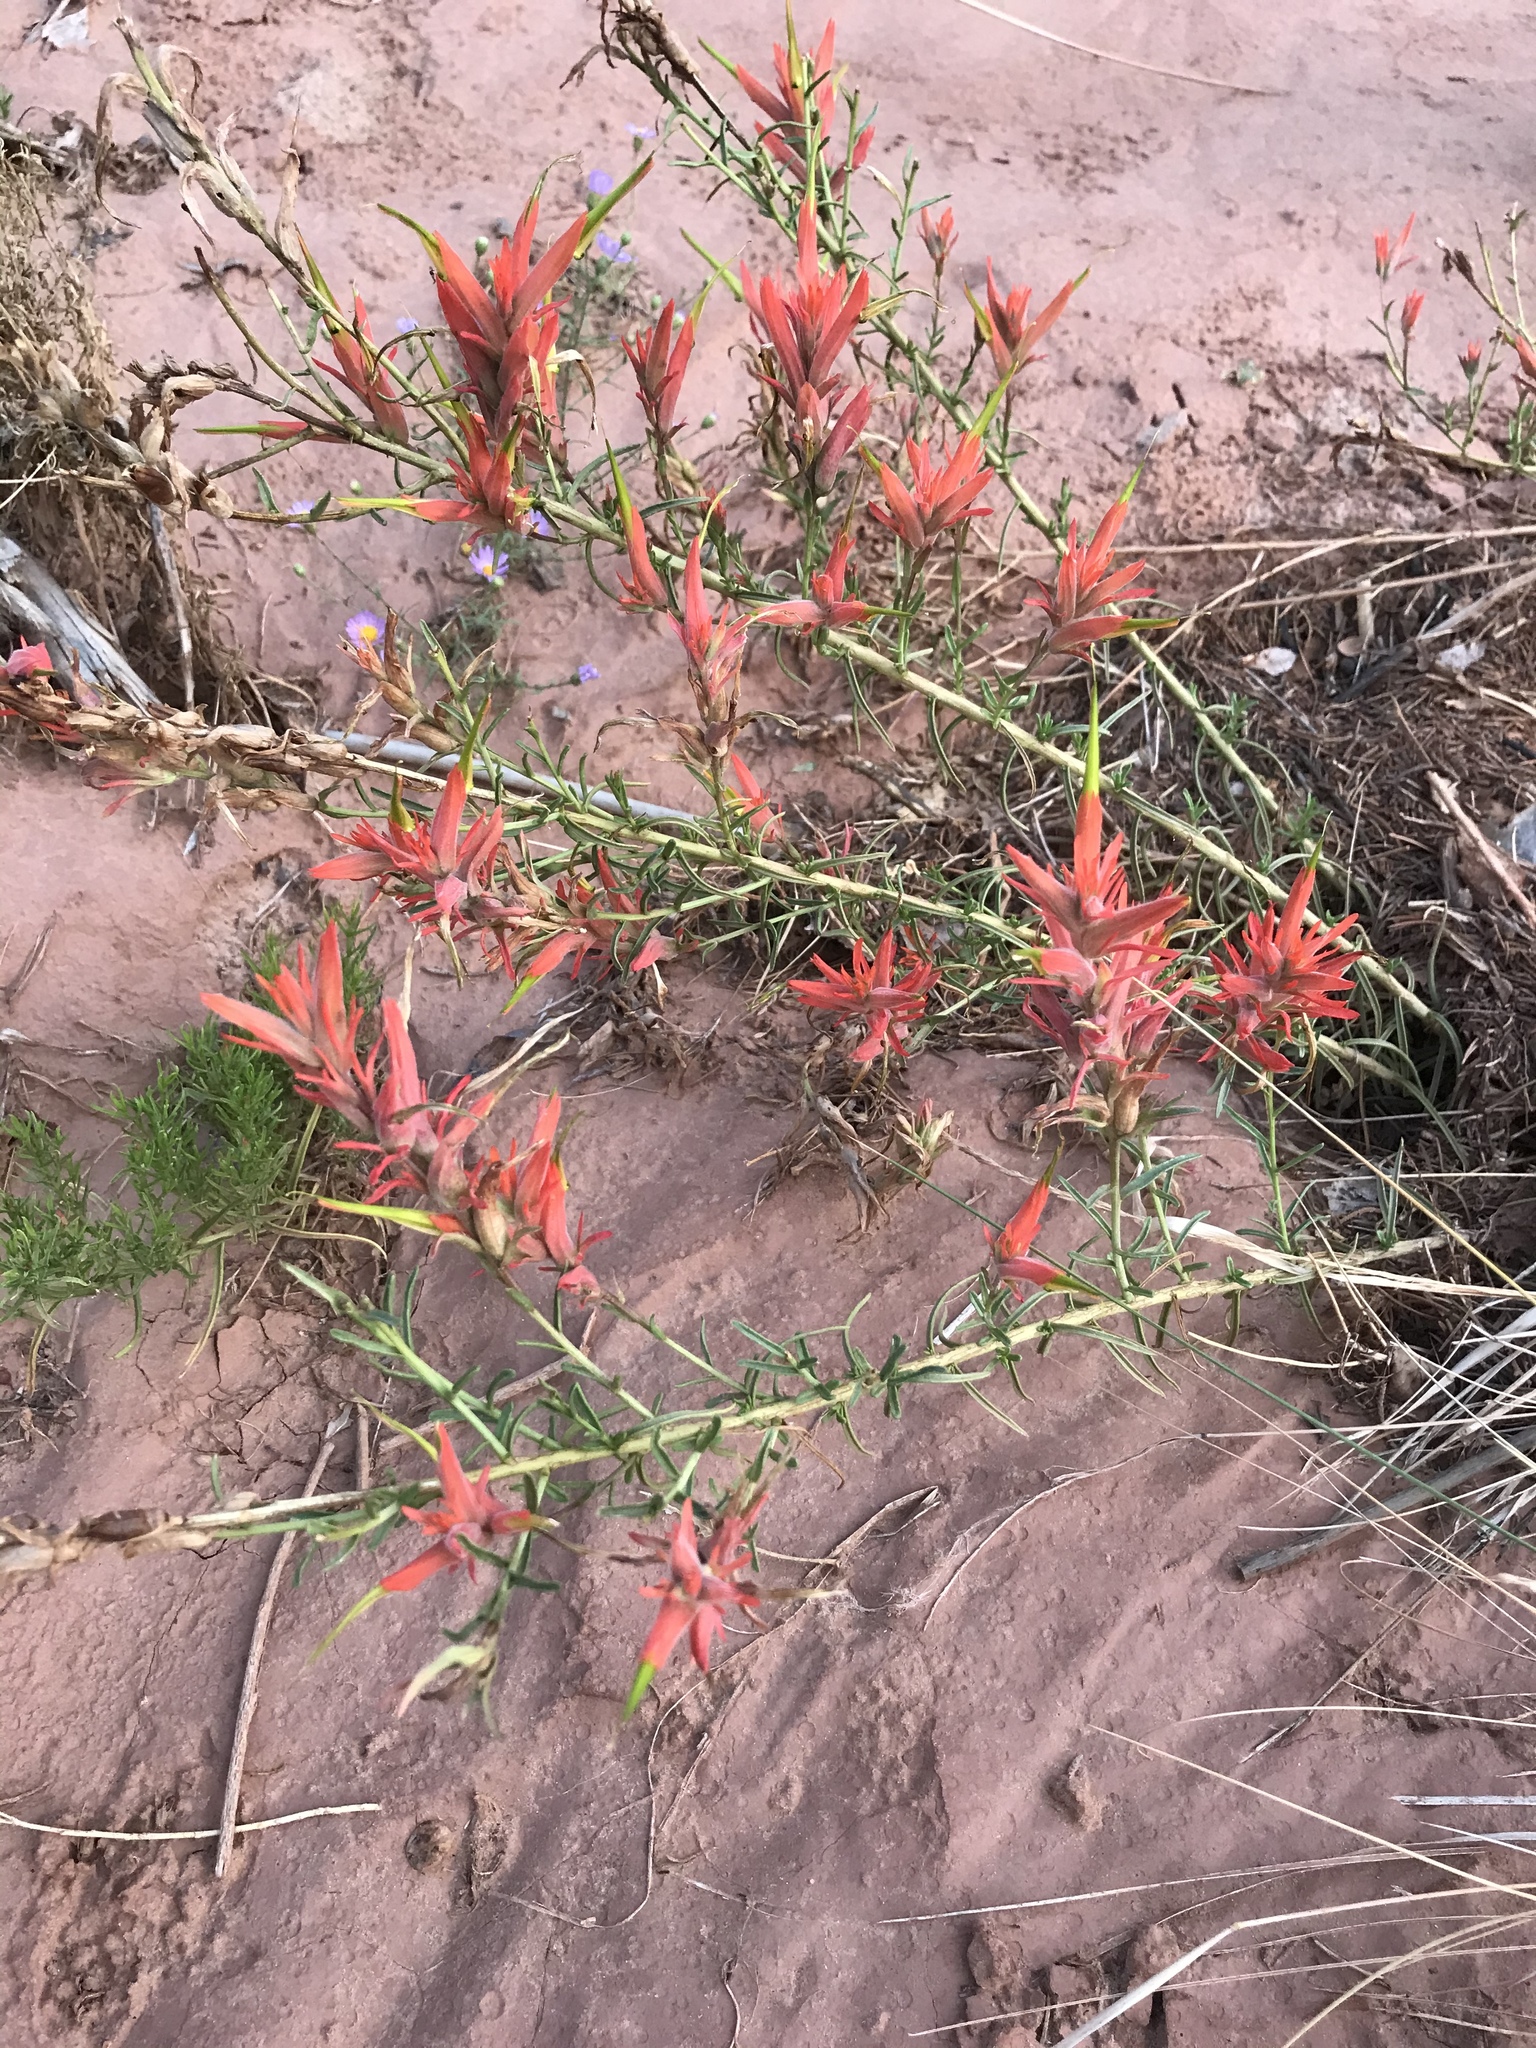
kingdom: Plantae
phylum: Tracheophyta
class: Magnoliopsida
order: Lamiales
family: Orobanchaceae
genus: Castilleja
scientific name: Castilleja linariifolia
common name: Wyoming paintbrush
